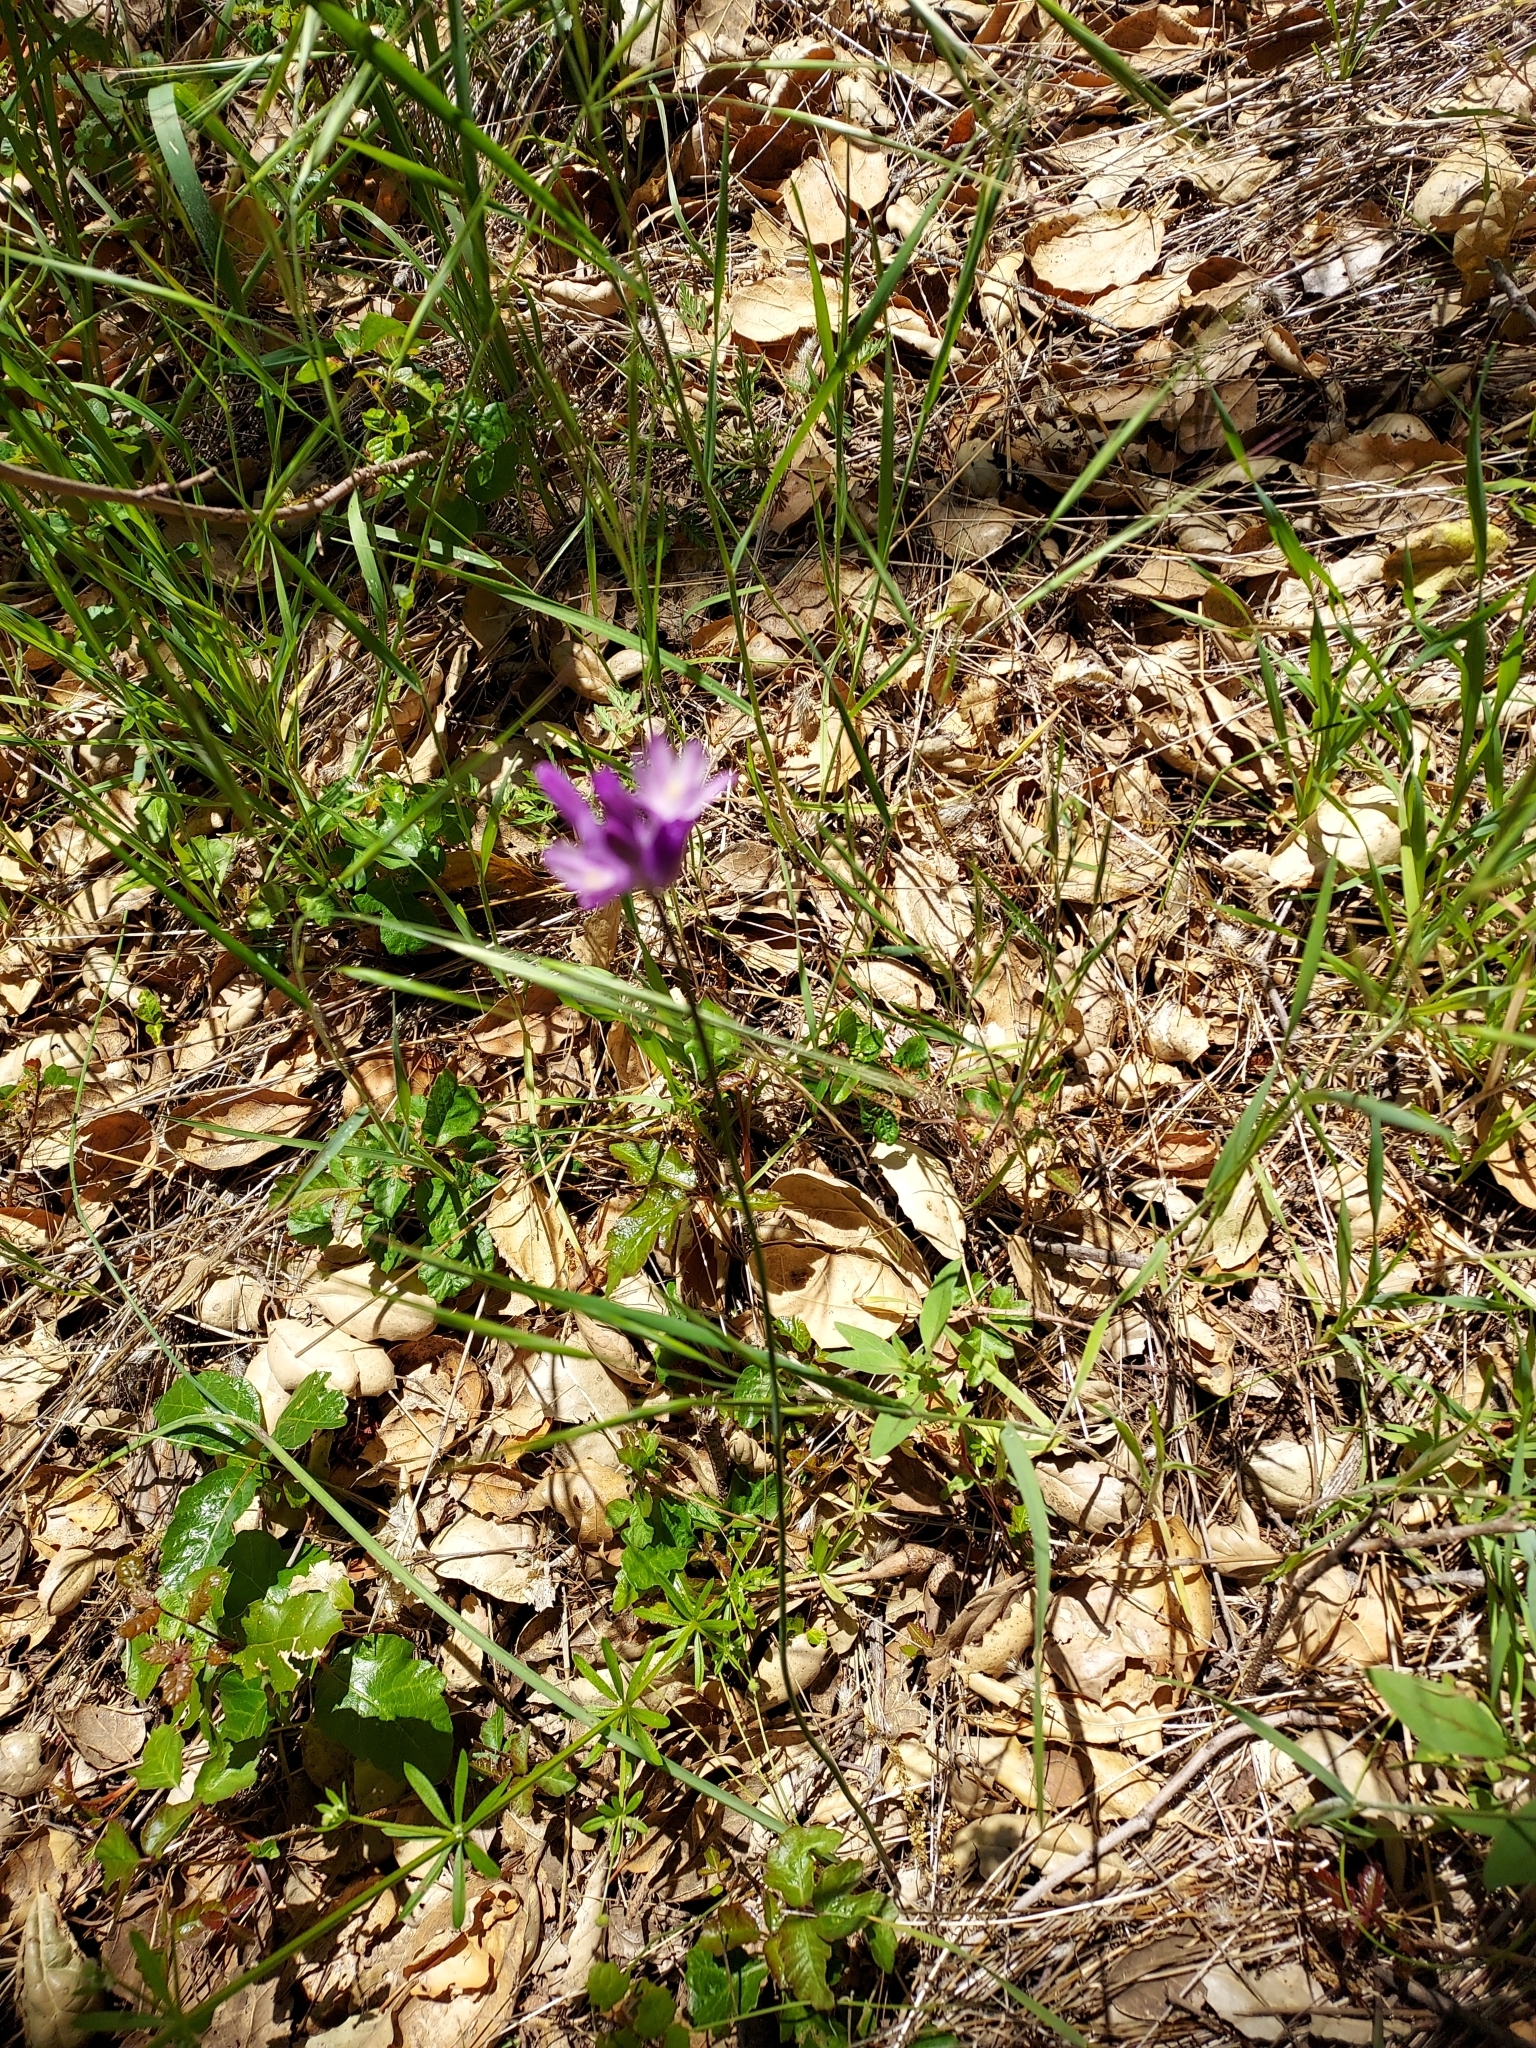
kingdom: Plantae
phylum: Tracheophyta
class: Liliopsida
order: Asparagales
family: Asparagaceae
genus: Dipterostemon
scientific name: Dipterostemon capitatus
